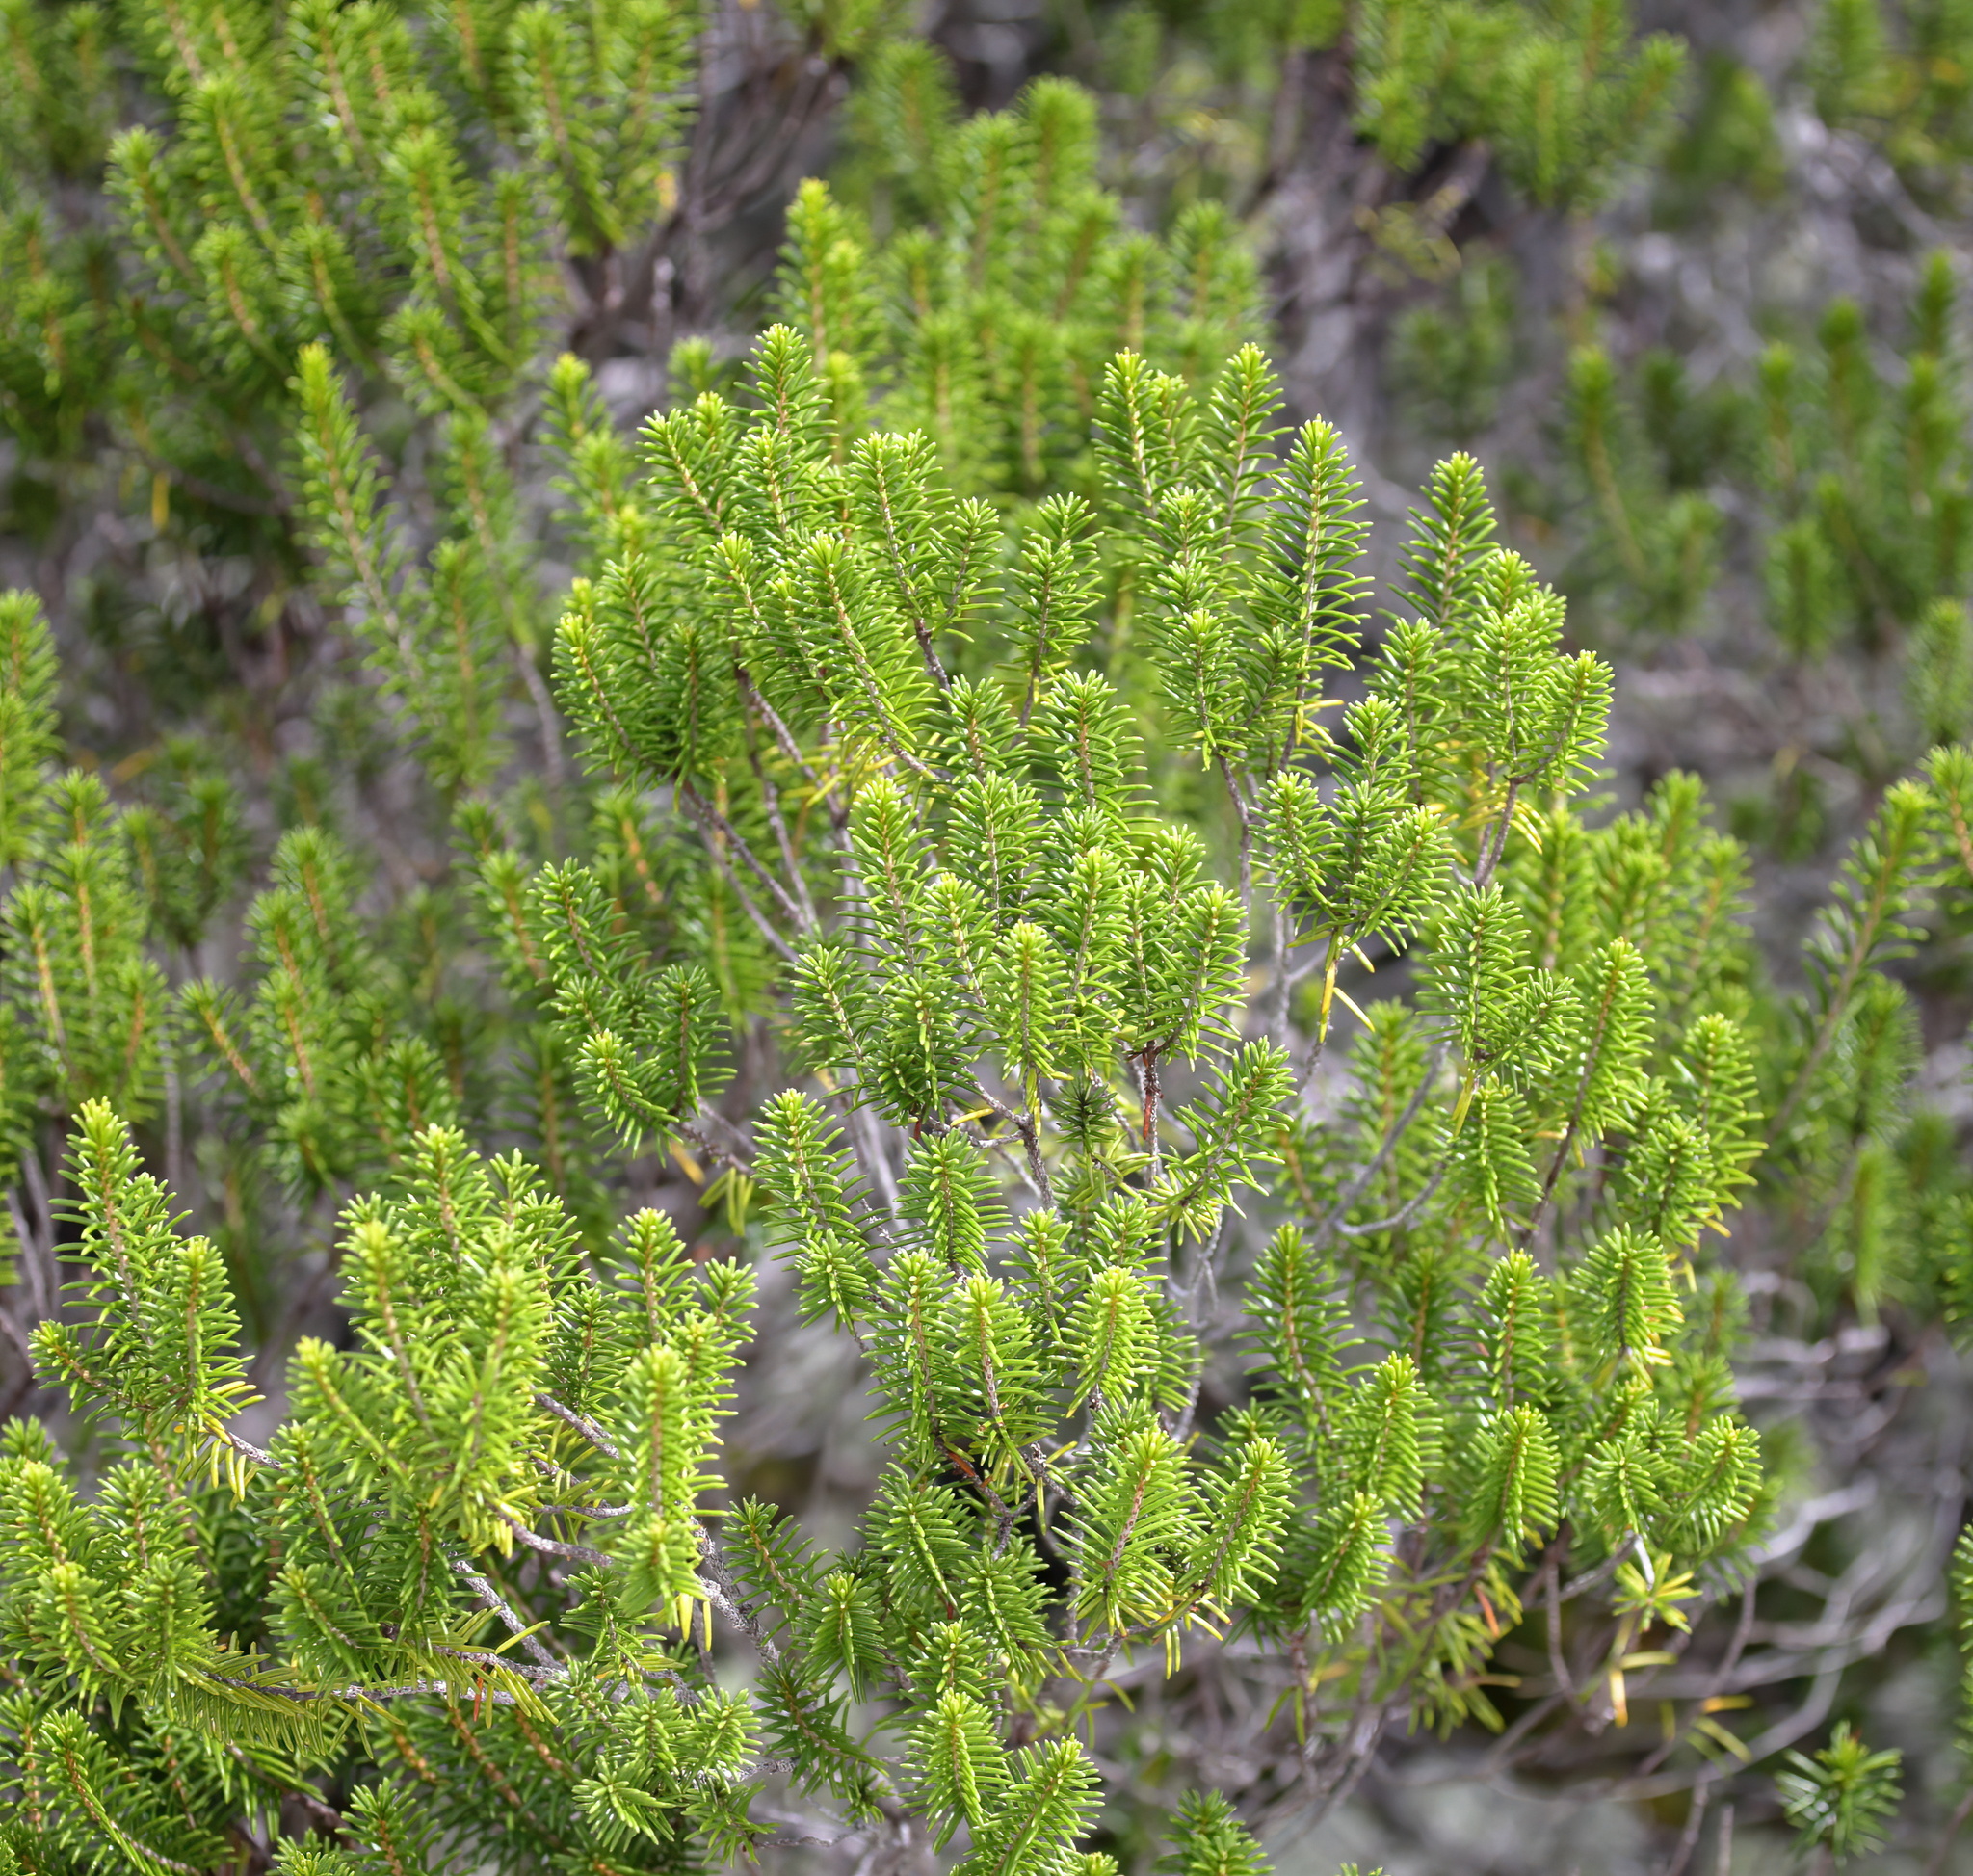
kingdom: Plantae
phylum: Tracheophyta
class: Magnoliopsida
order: Ericales
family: Ericaceae
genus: Ceratiola
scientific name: Ceratiola ericoides
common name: Sandhill-rosemary
